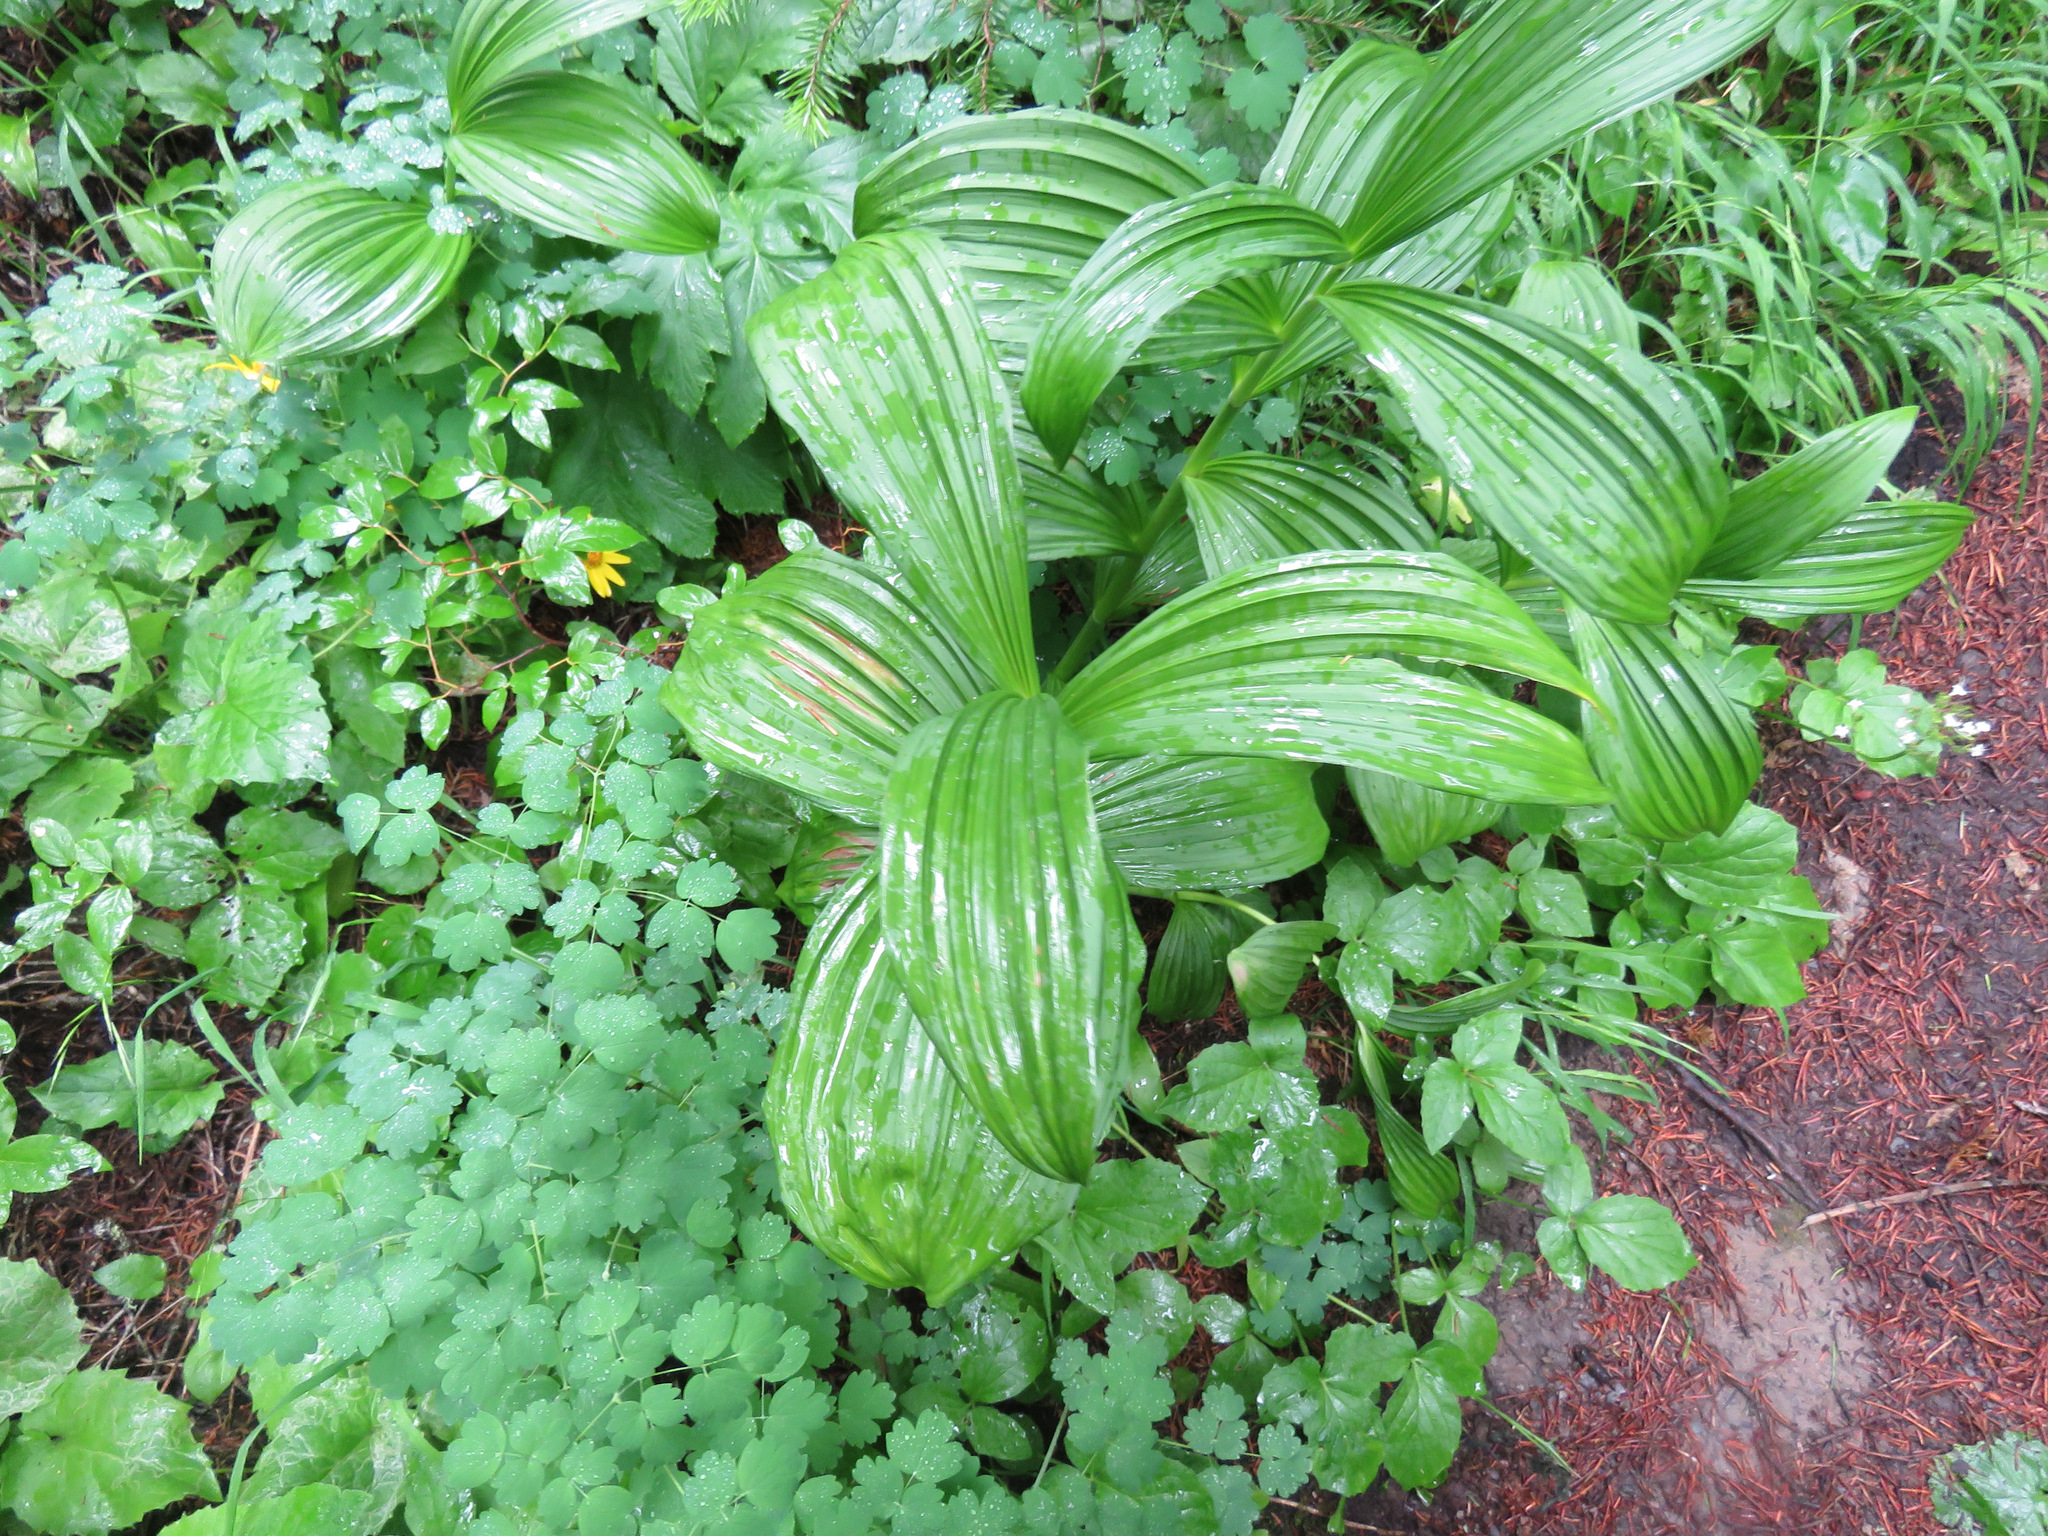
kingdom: Plantae
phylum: Tracheophyta
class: Liliopsida
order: Liliales
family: Melanthiaceae
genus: Veratrum
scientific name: Veratrum viride
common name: American false hellebore
